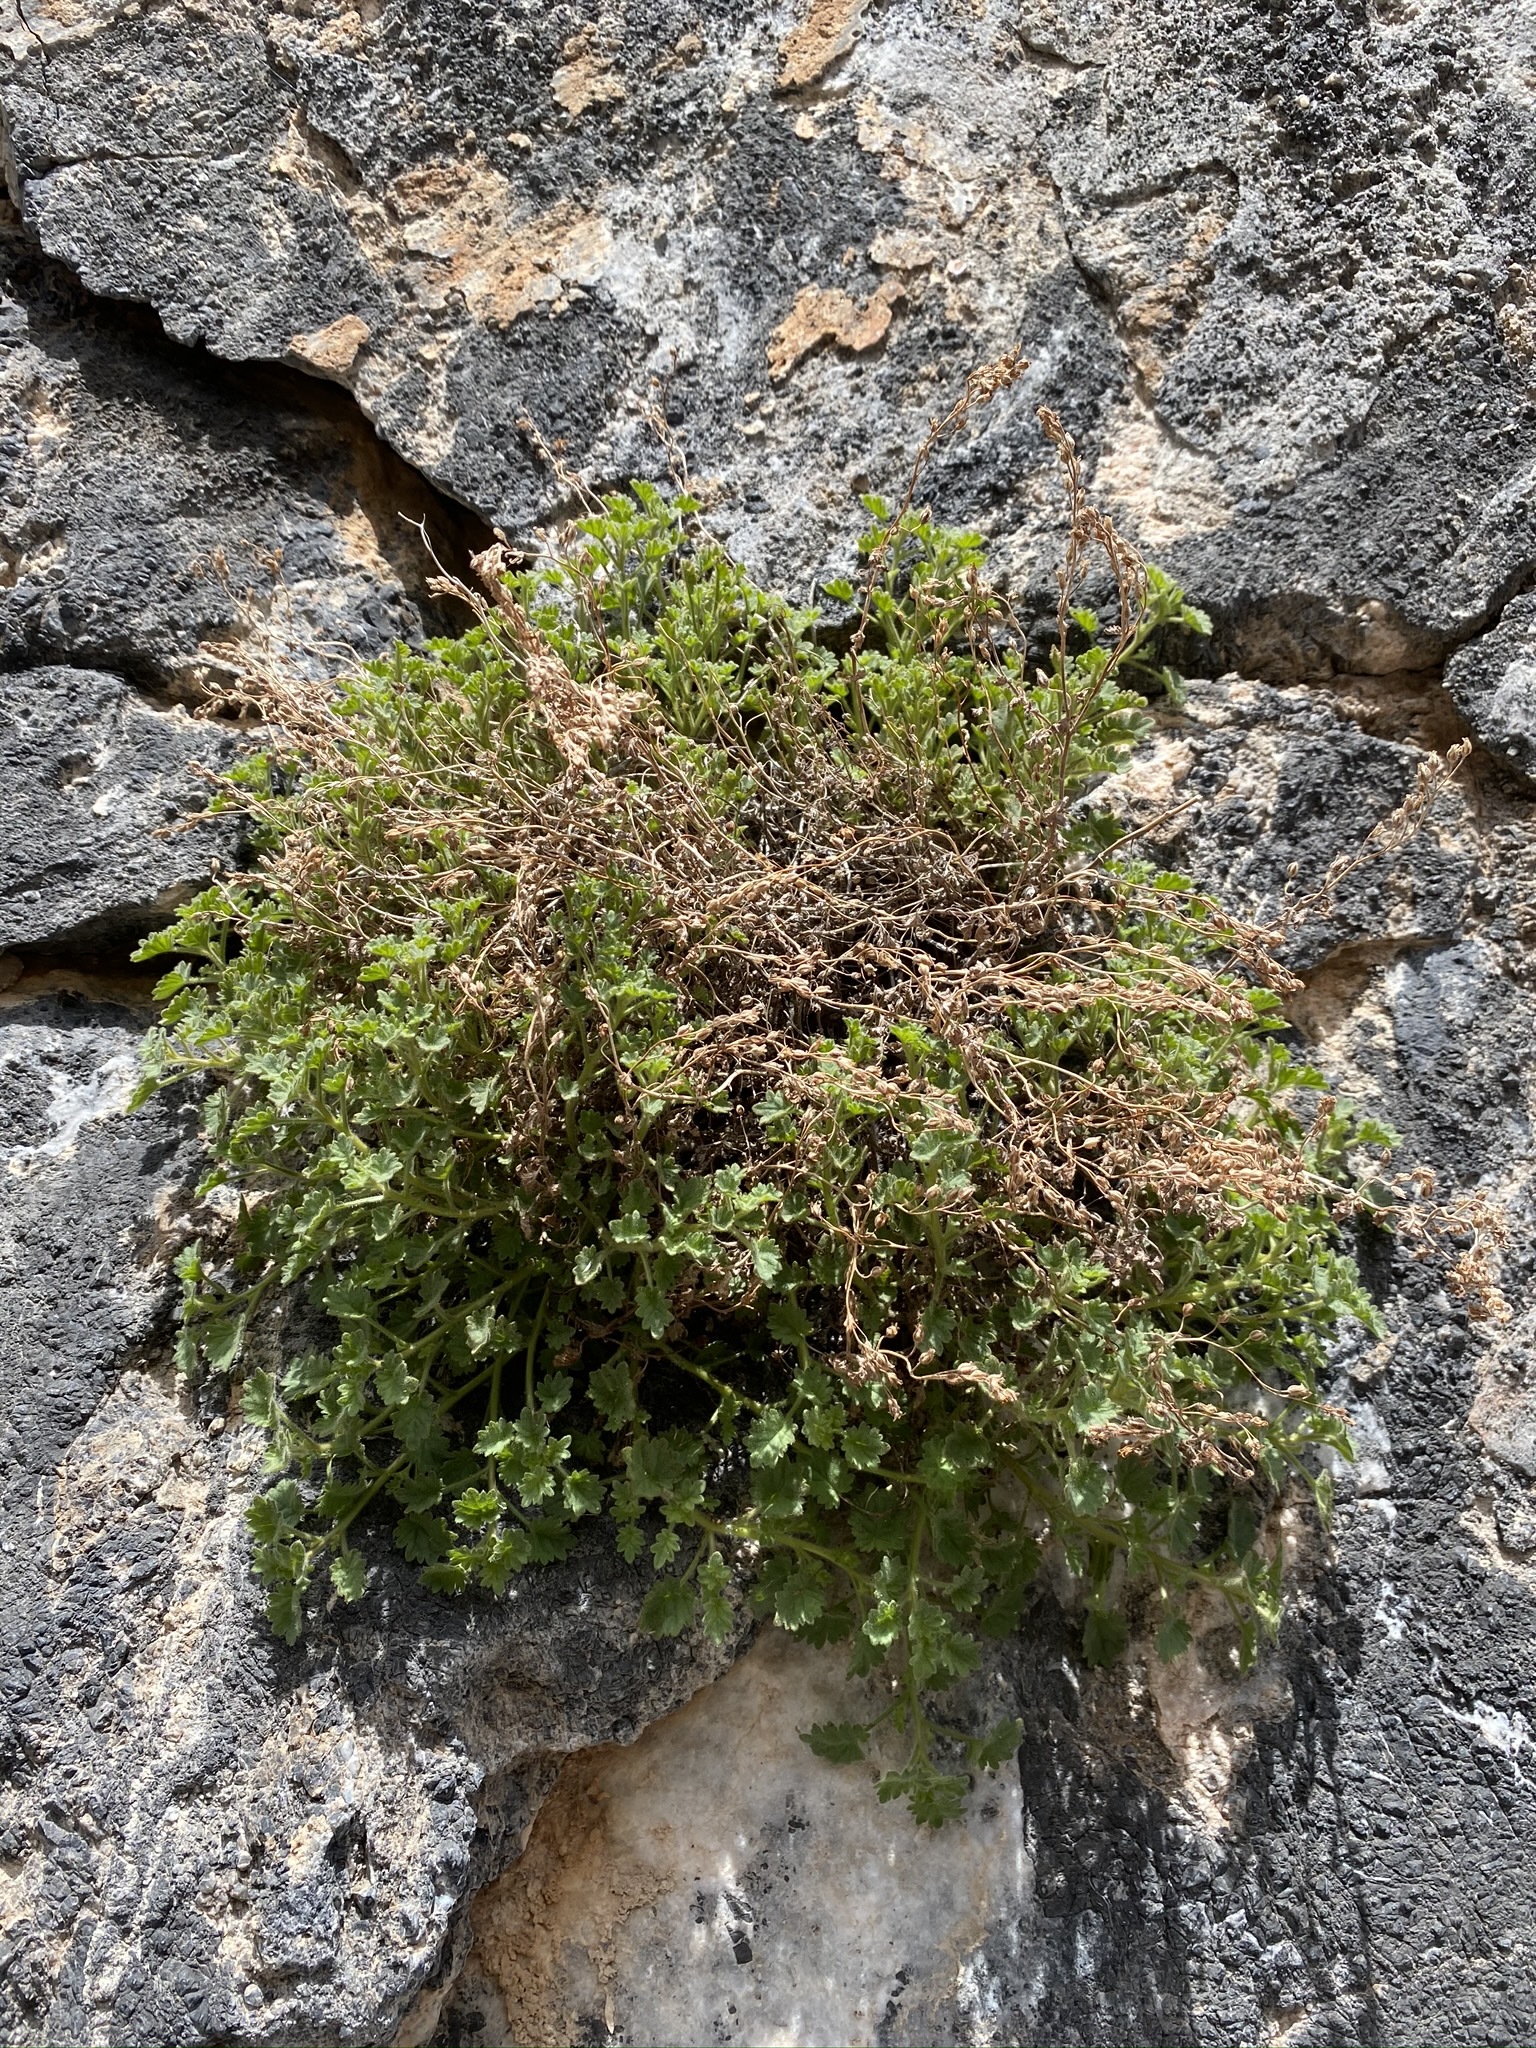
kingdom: Plantae
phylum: Tracheophyta
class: Magnoliopsida
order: Boraginales
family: Hydrophyllaceae
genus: Phacelia
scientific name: Phacelia perityloides
